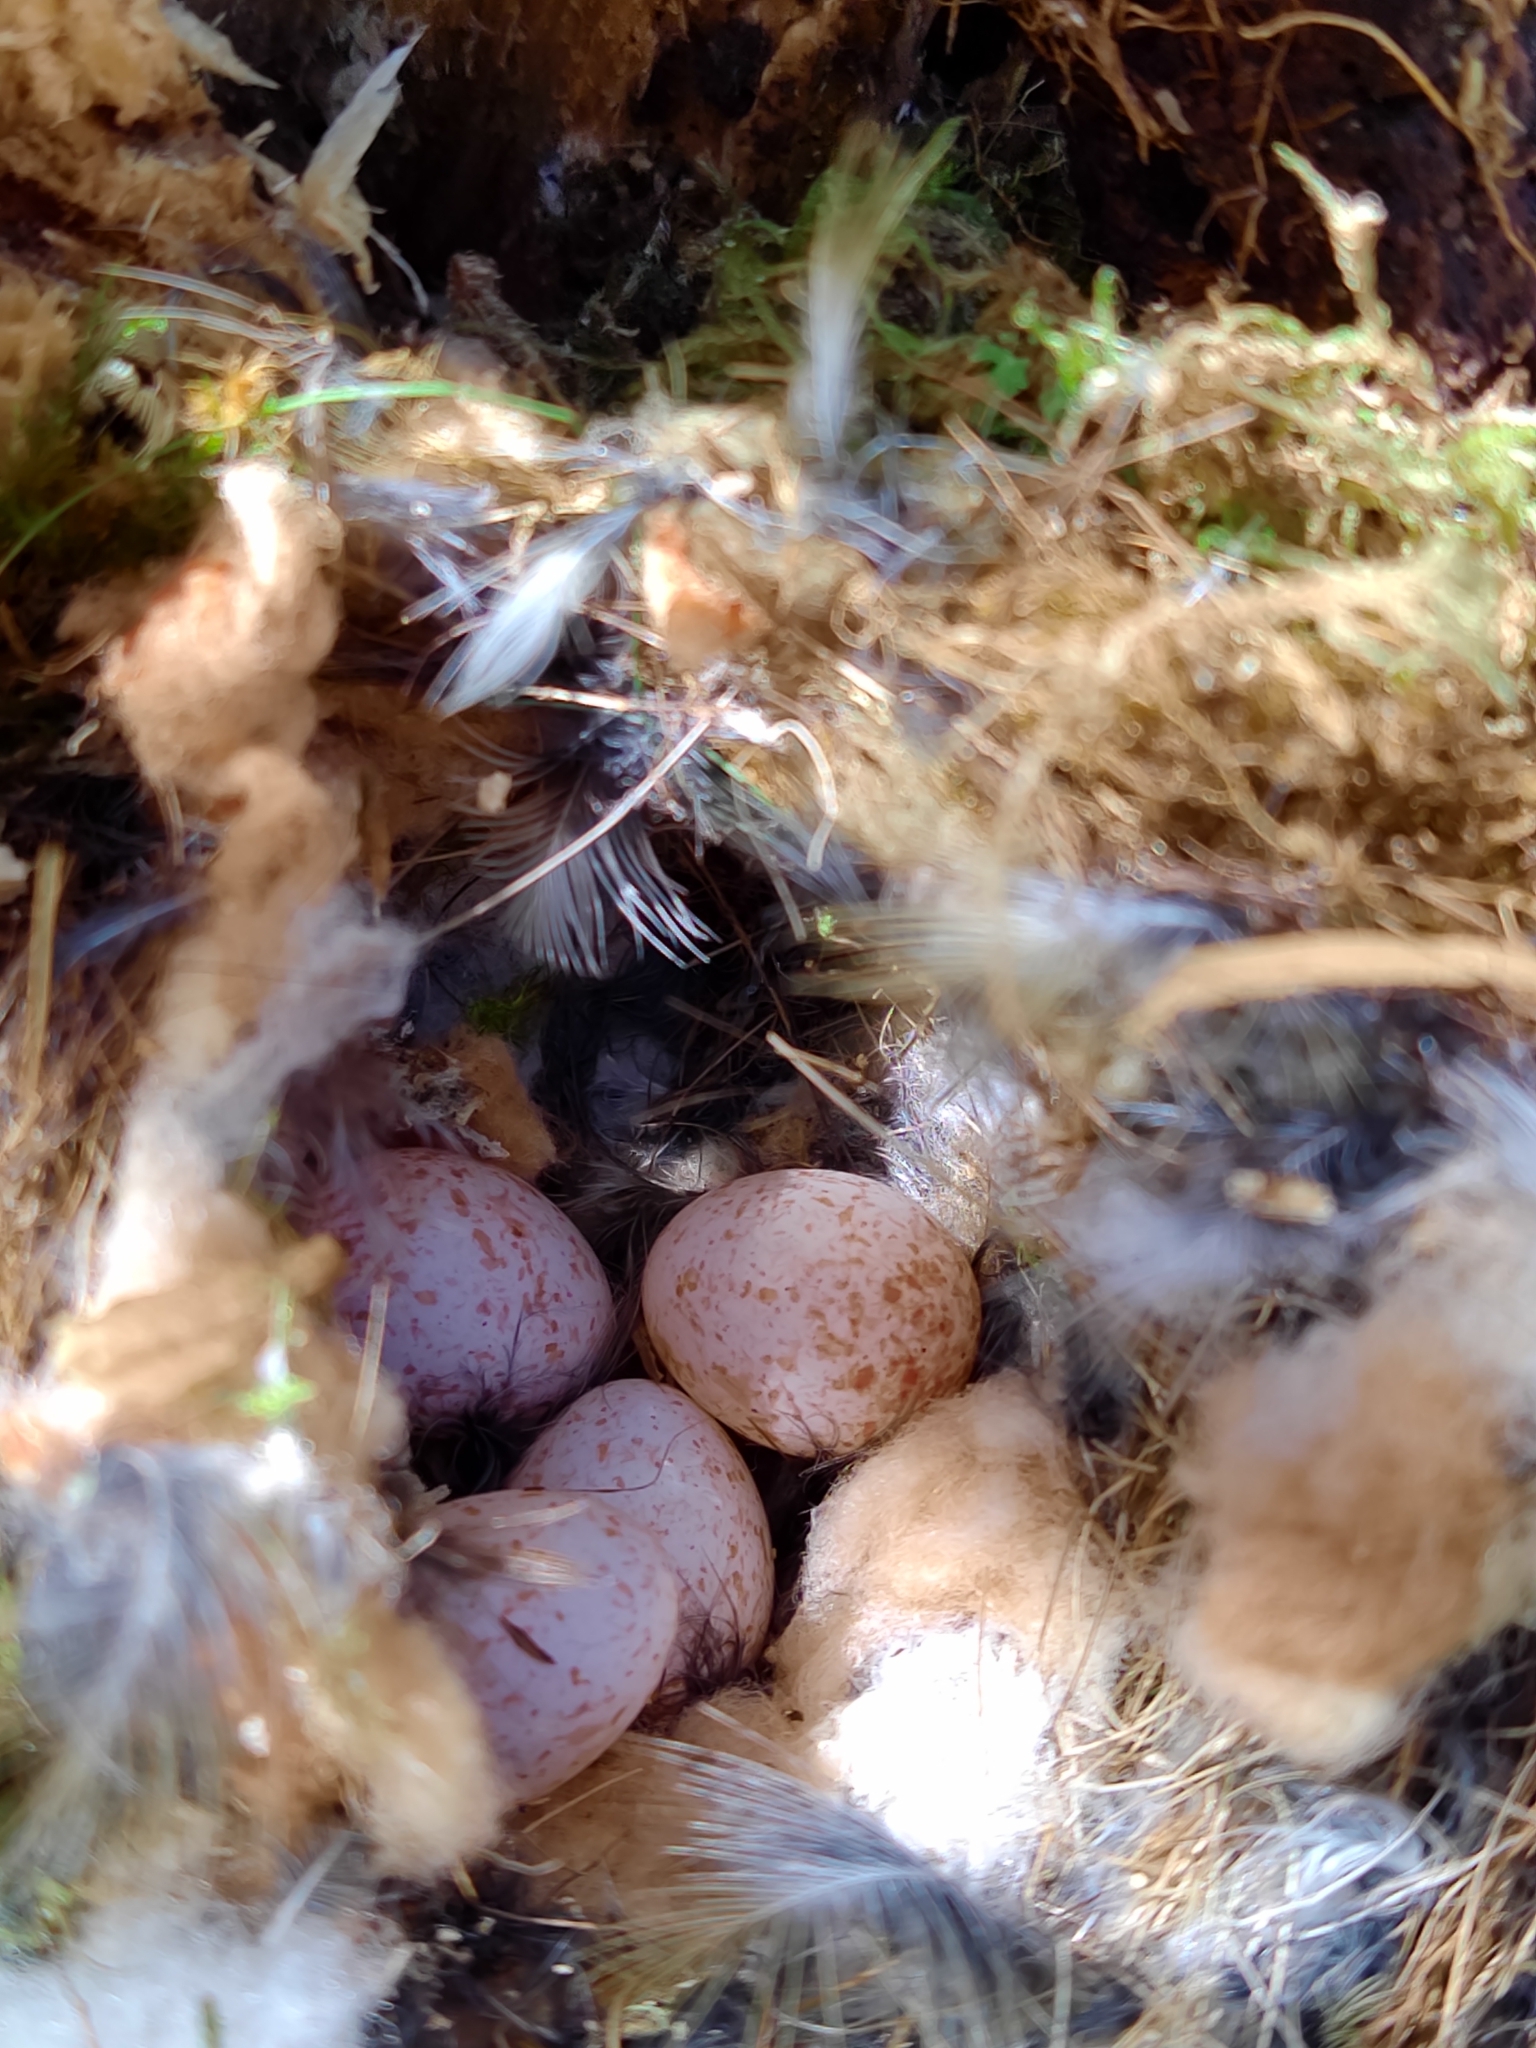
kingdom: Animalia
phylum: Chordata
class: Aves
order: Passeriformes
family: Paridae
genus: Cyanistes
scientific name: Cyanistes caeruleus
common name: Eurasian blue tit
